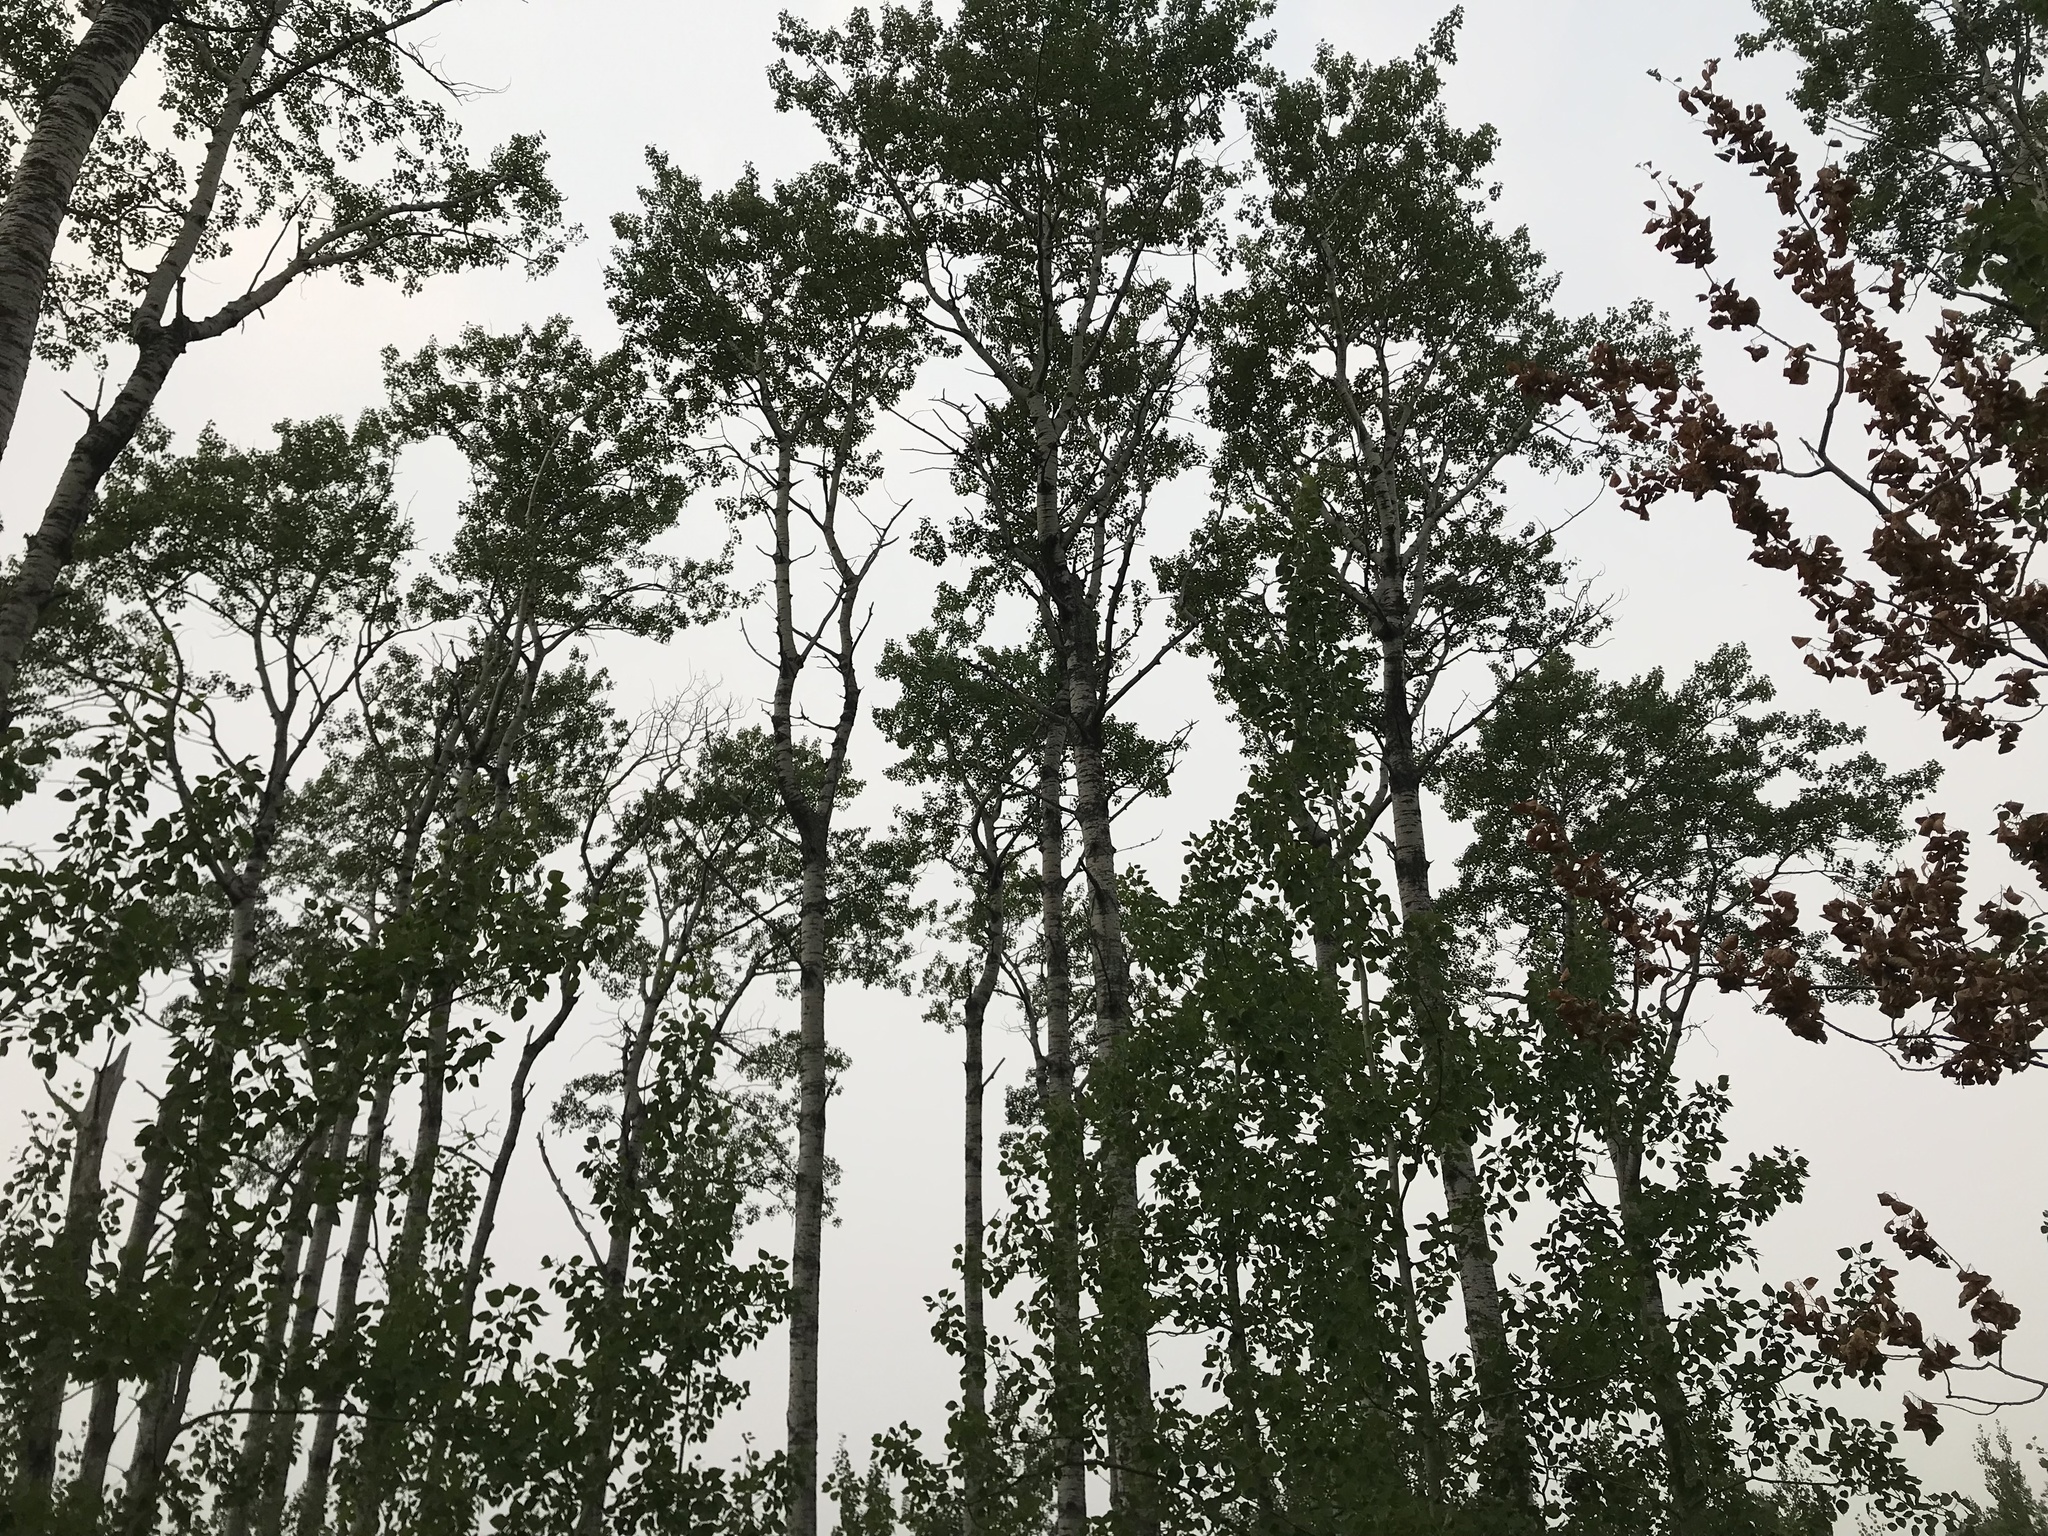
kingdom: Plantae
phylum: Tracheophyta
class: Magnoliopsida
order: Malpighiales
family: Salicaceae
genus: Populus
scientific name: Populus tremuloides
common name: Quaking aspen
